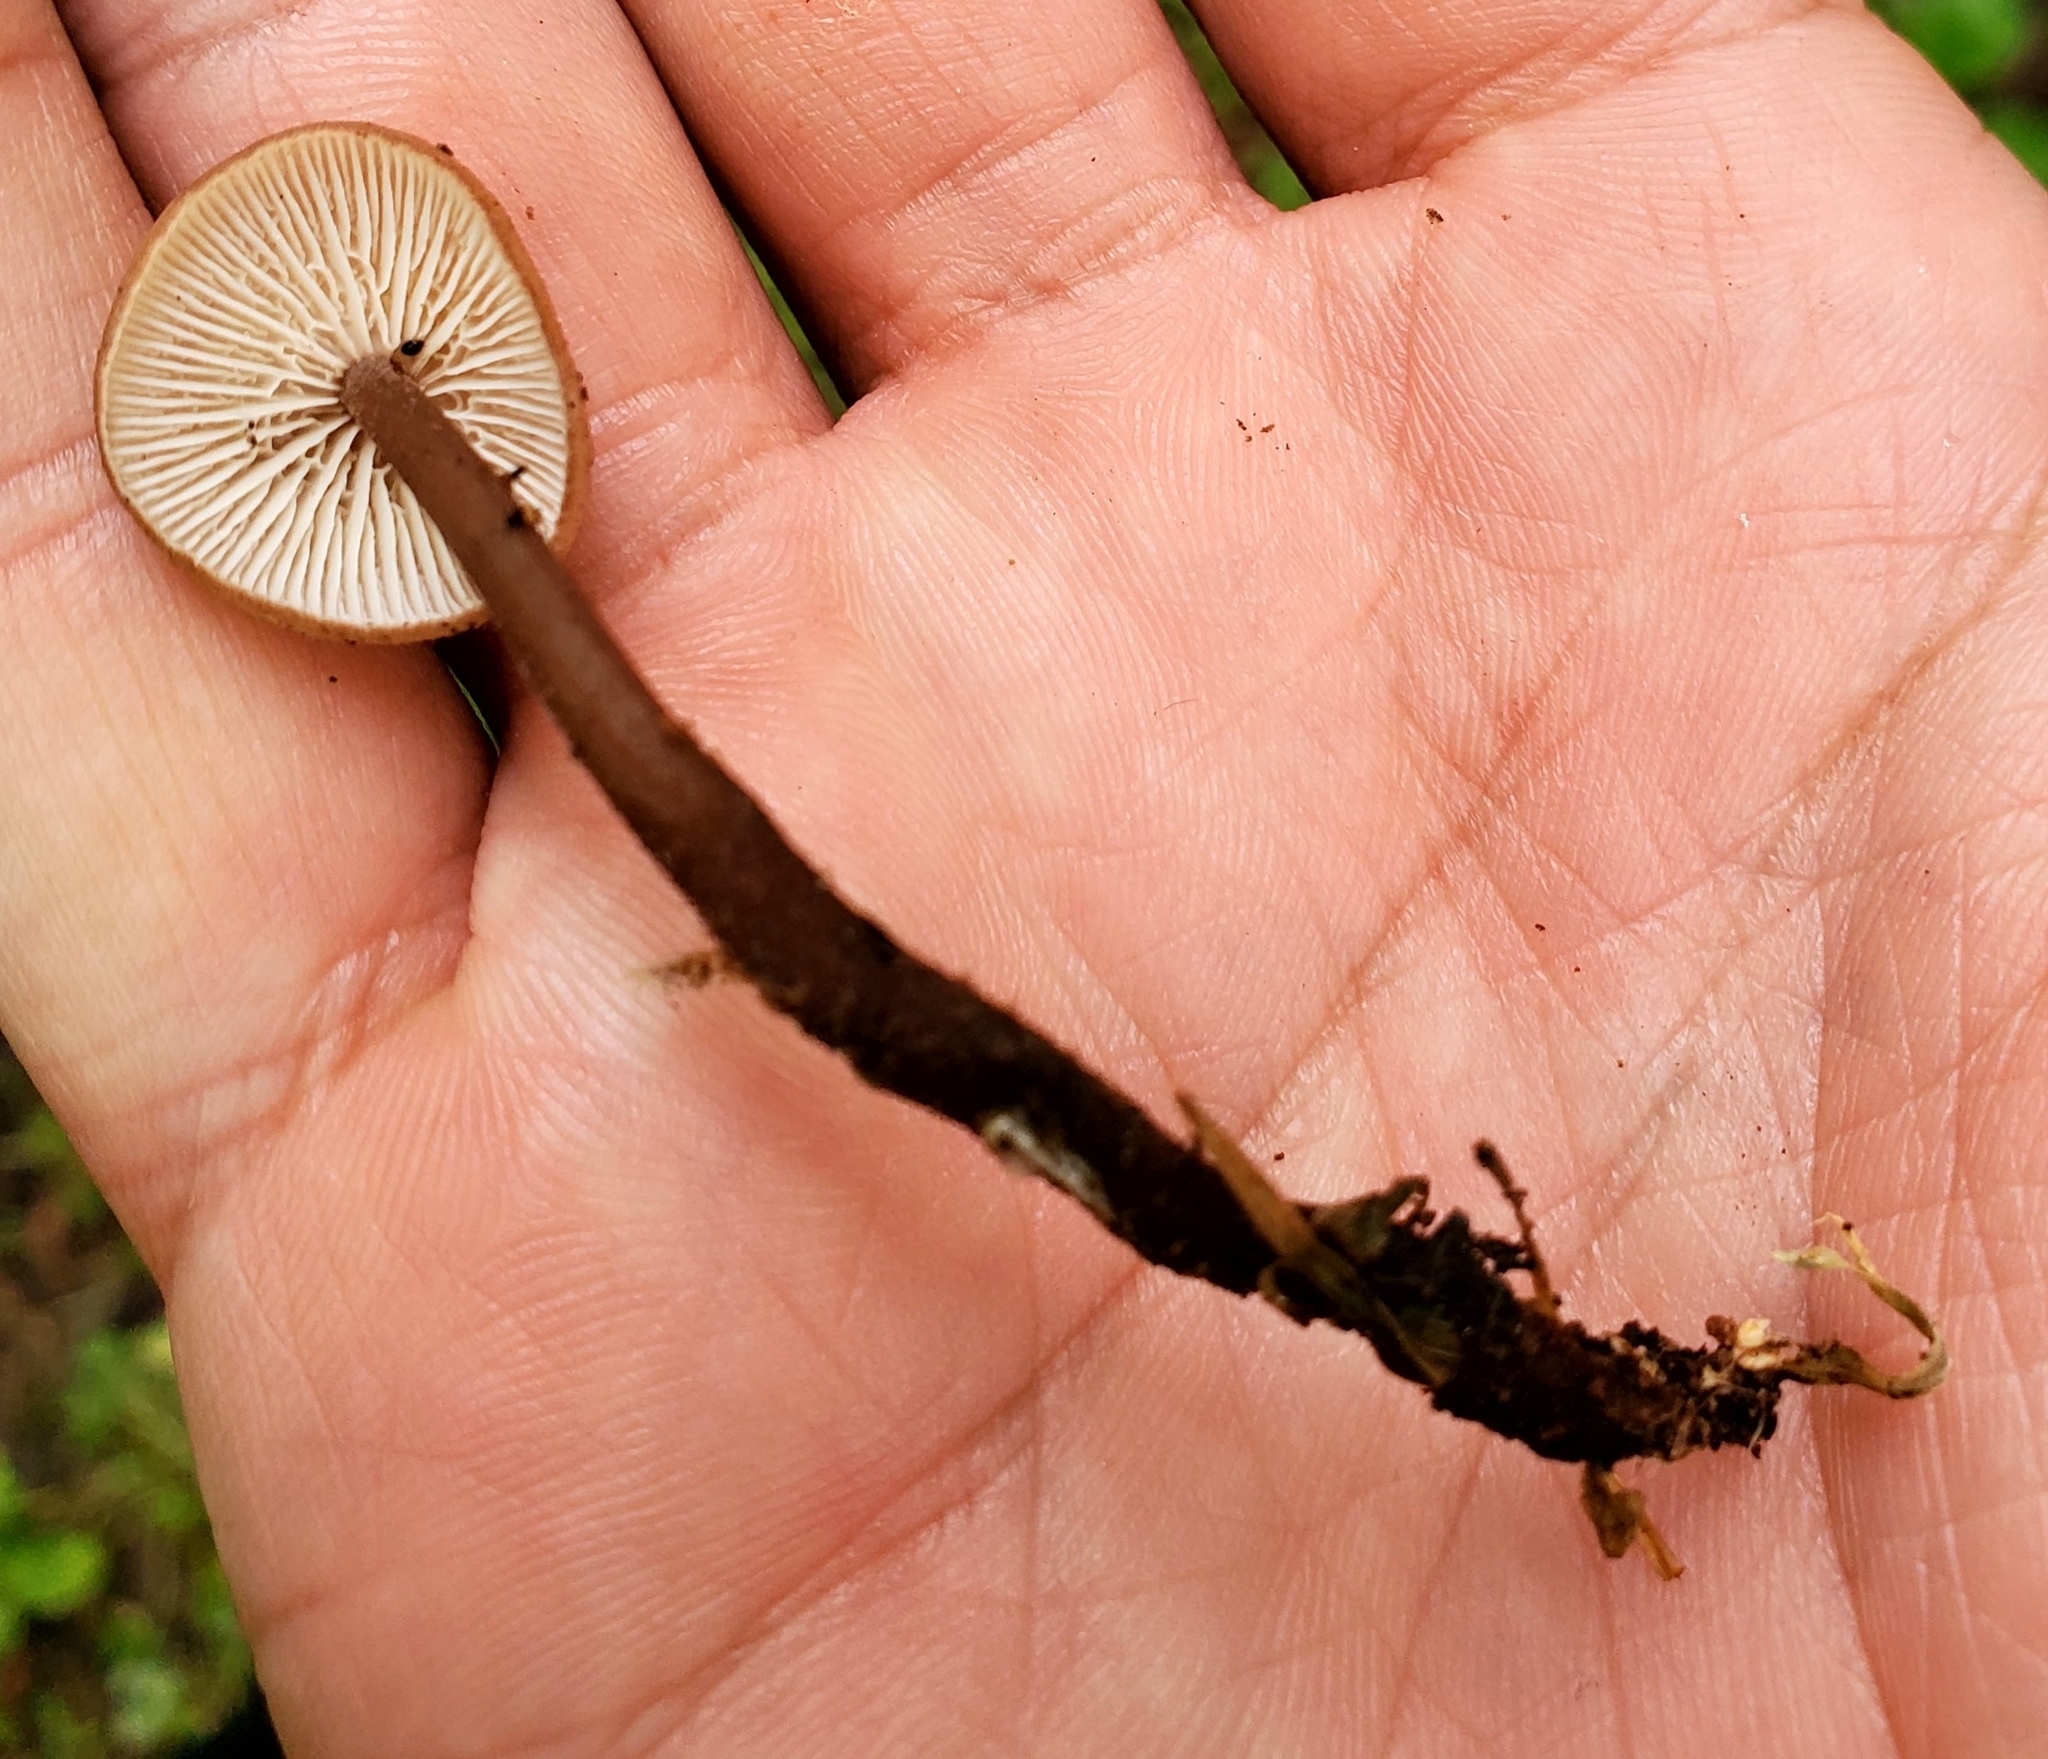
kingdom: Fungi
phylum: Basidiomycota
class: Agaricomycetes
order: Agaricales
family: Omphalotaceae
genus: Gymnopus
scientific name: Gymnopus semihirtipes
